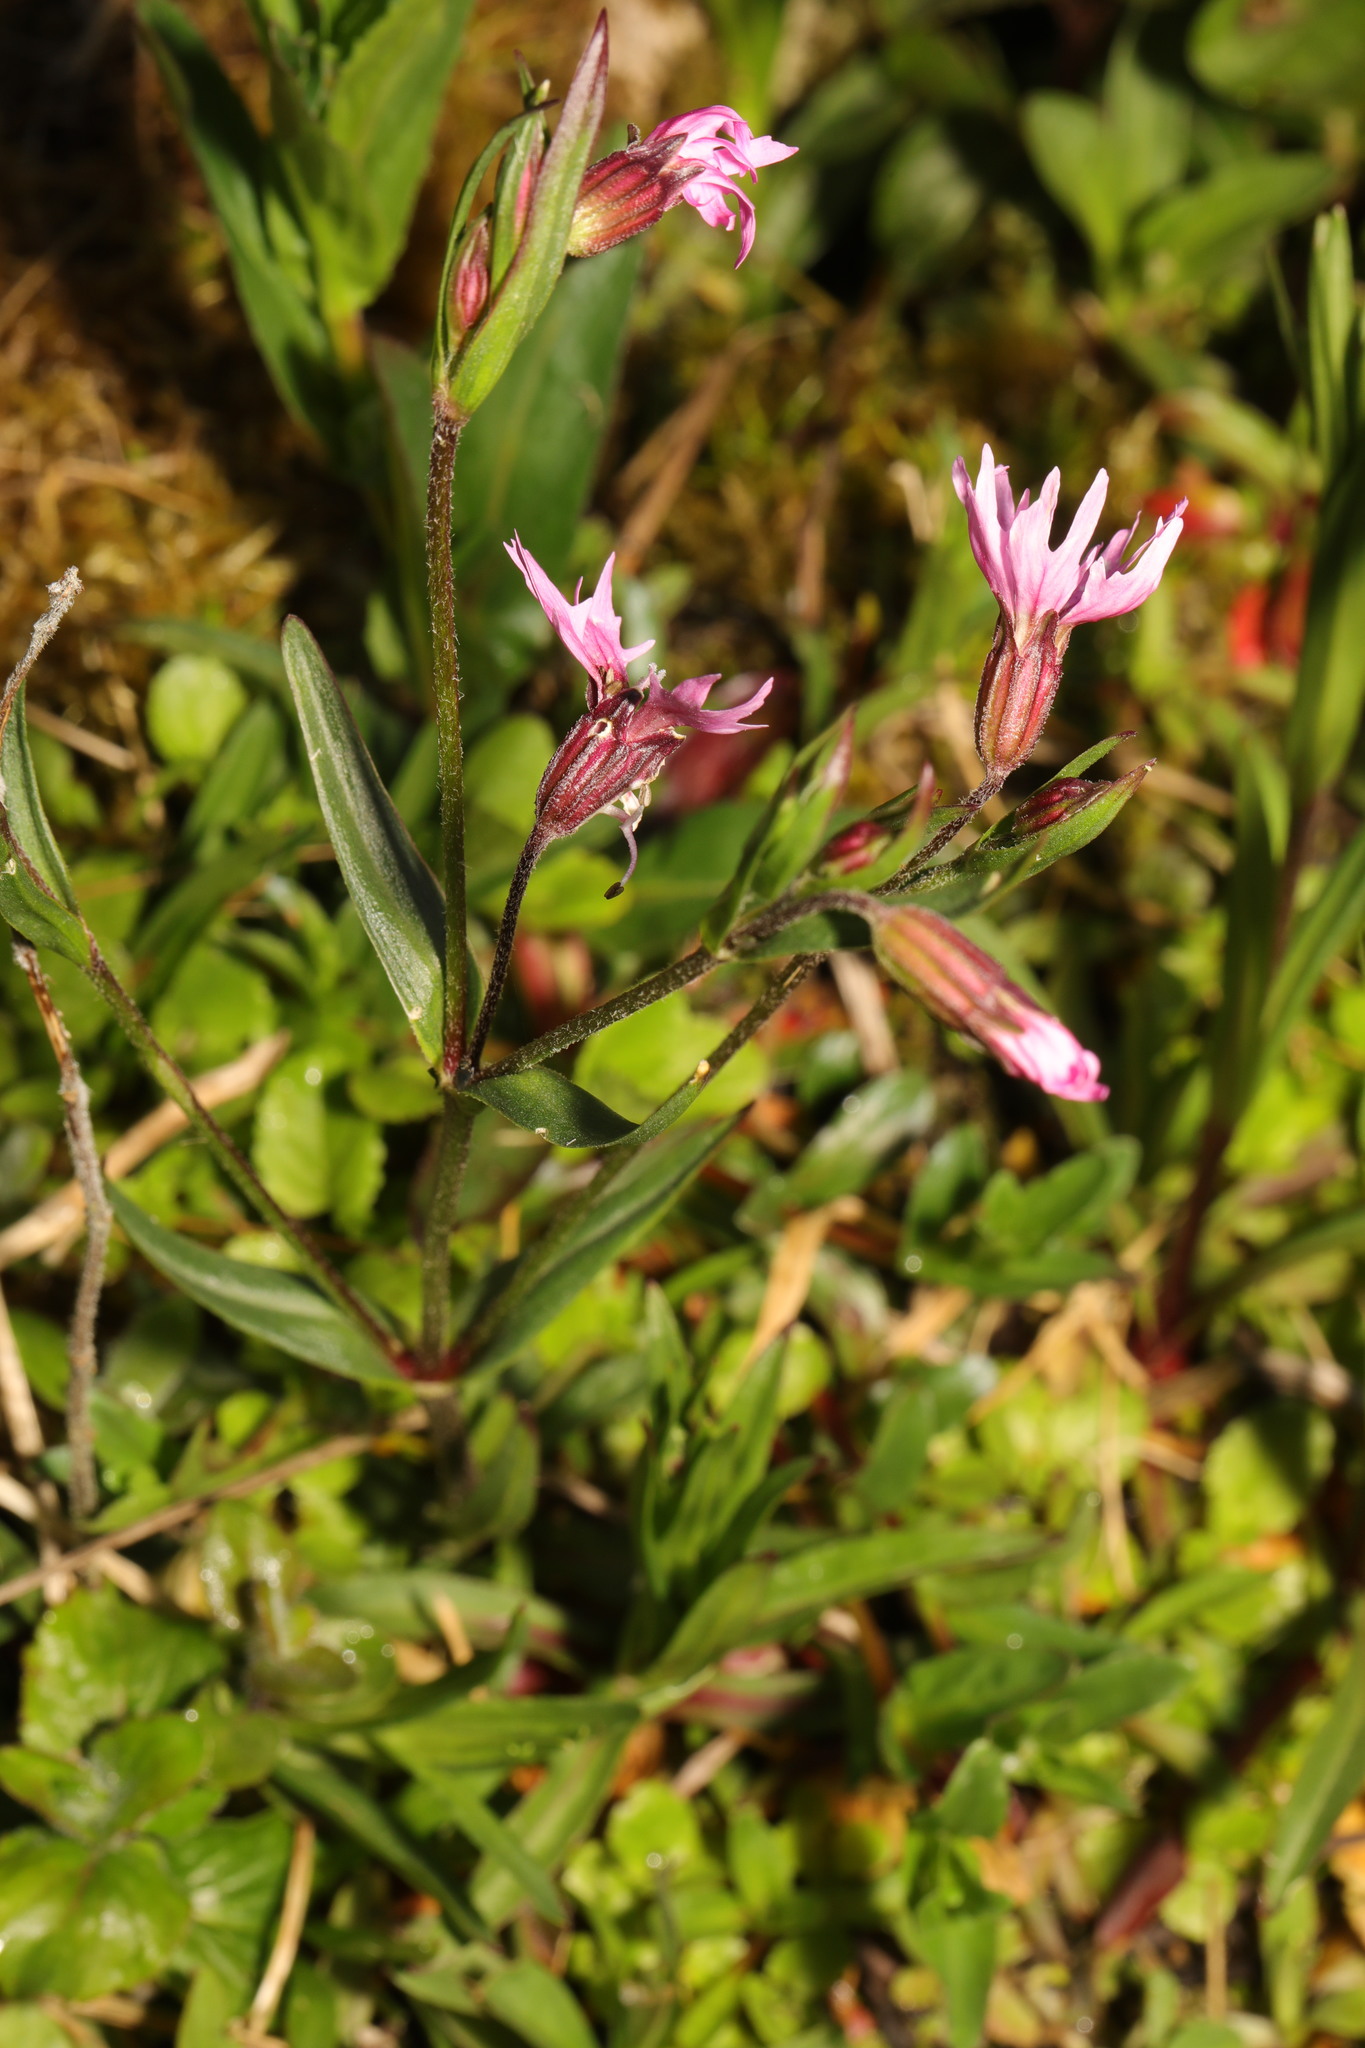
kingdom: Plantae
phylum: Tracheophyta
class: Magnoliopsida
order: Caryophyllales
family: Caryophyllaceae
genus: Silene
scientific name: Silene flos-cuculi
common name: Ragged-robin
